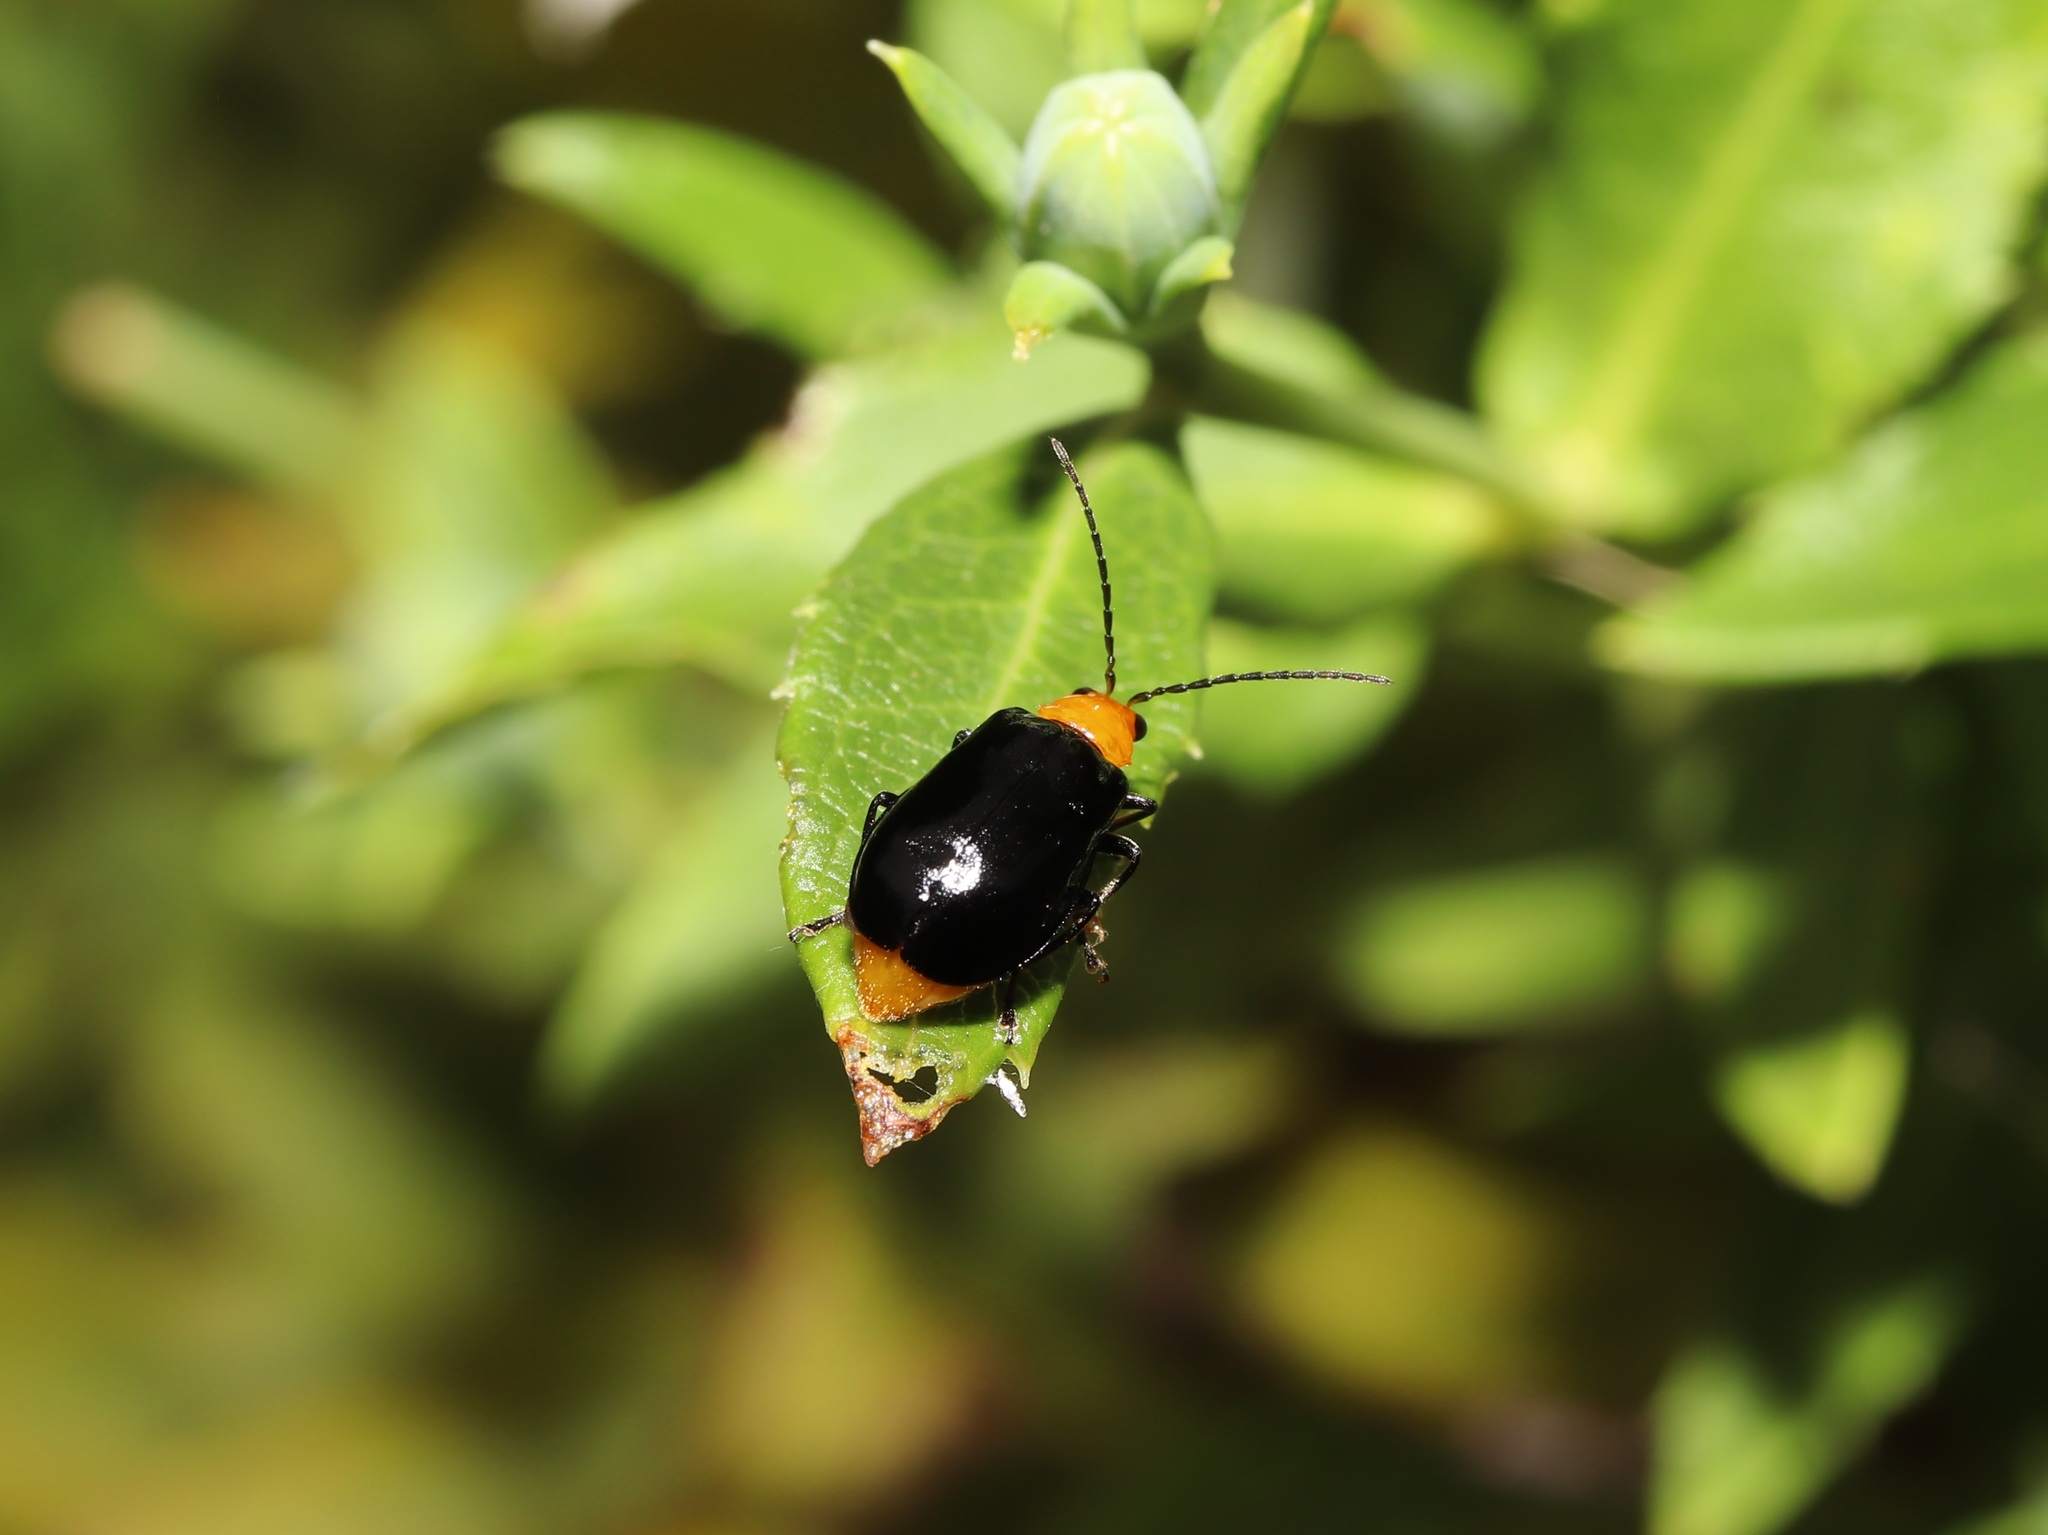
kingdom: Animalia
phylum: Arthropoda
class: Insecta
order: Coleoptera
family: Chrysomelidae
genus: Aulacophora
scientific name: Aulacophora nigripennis
